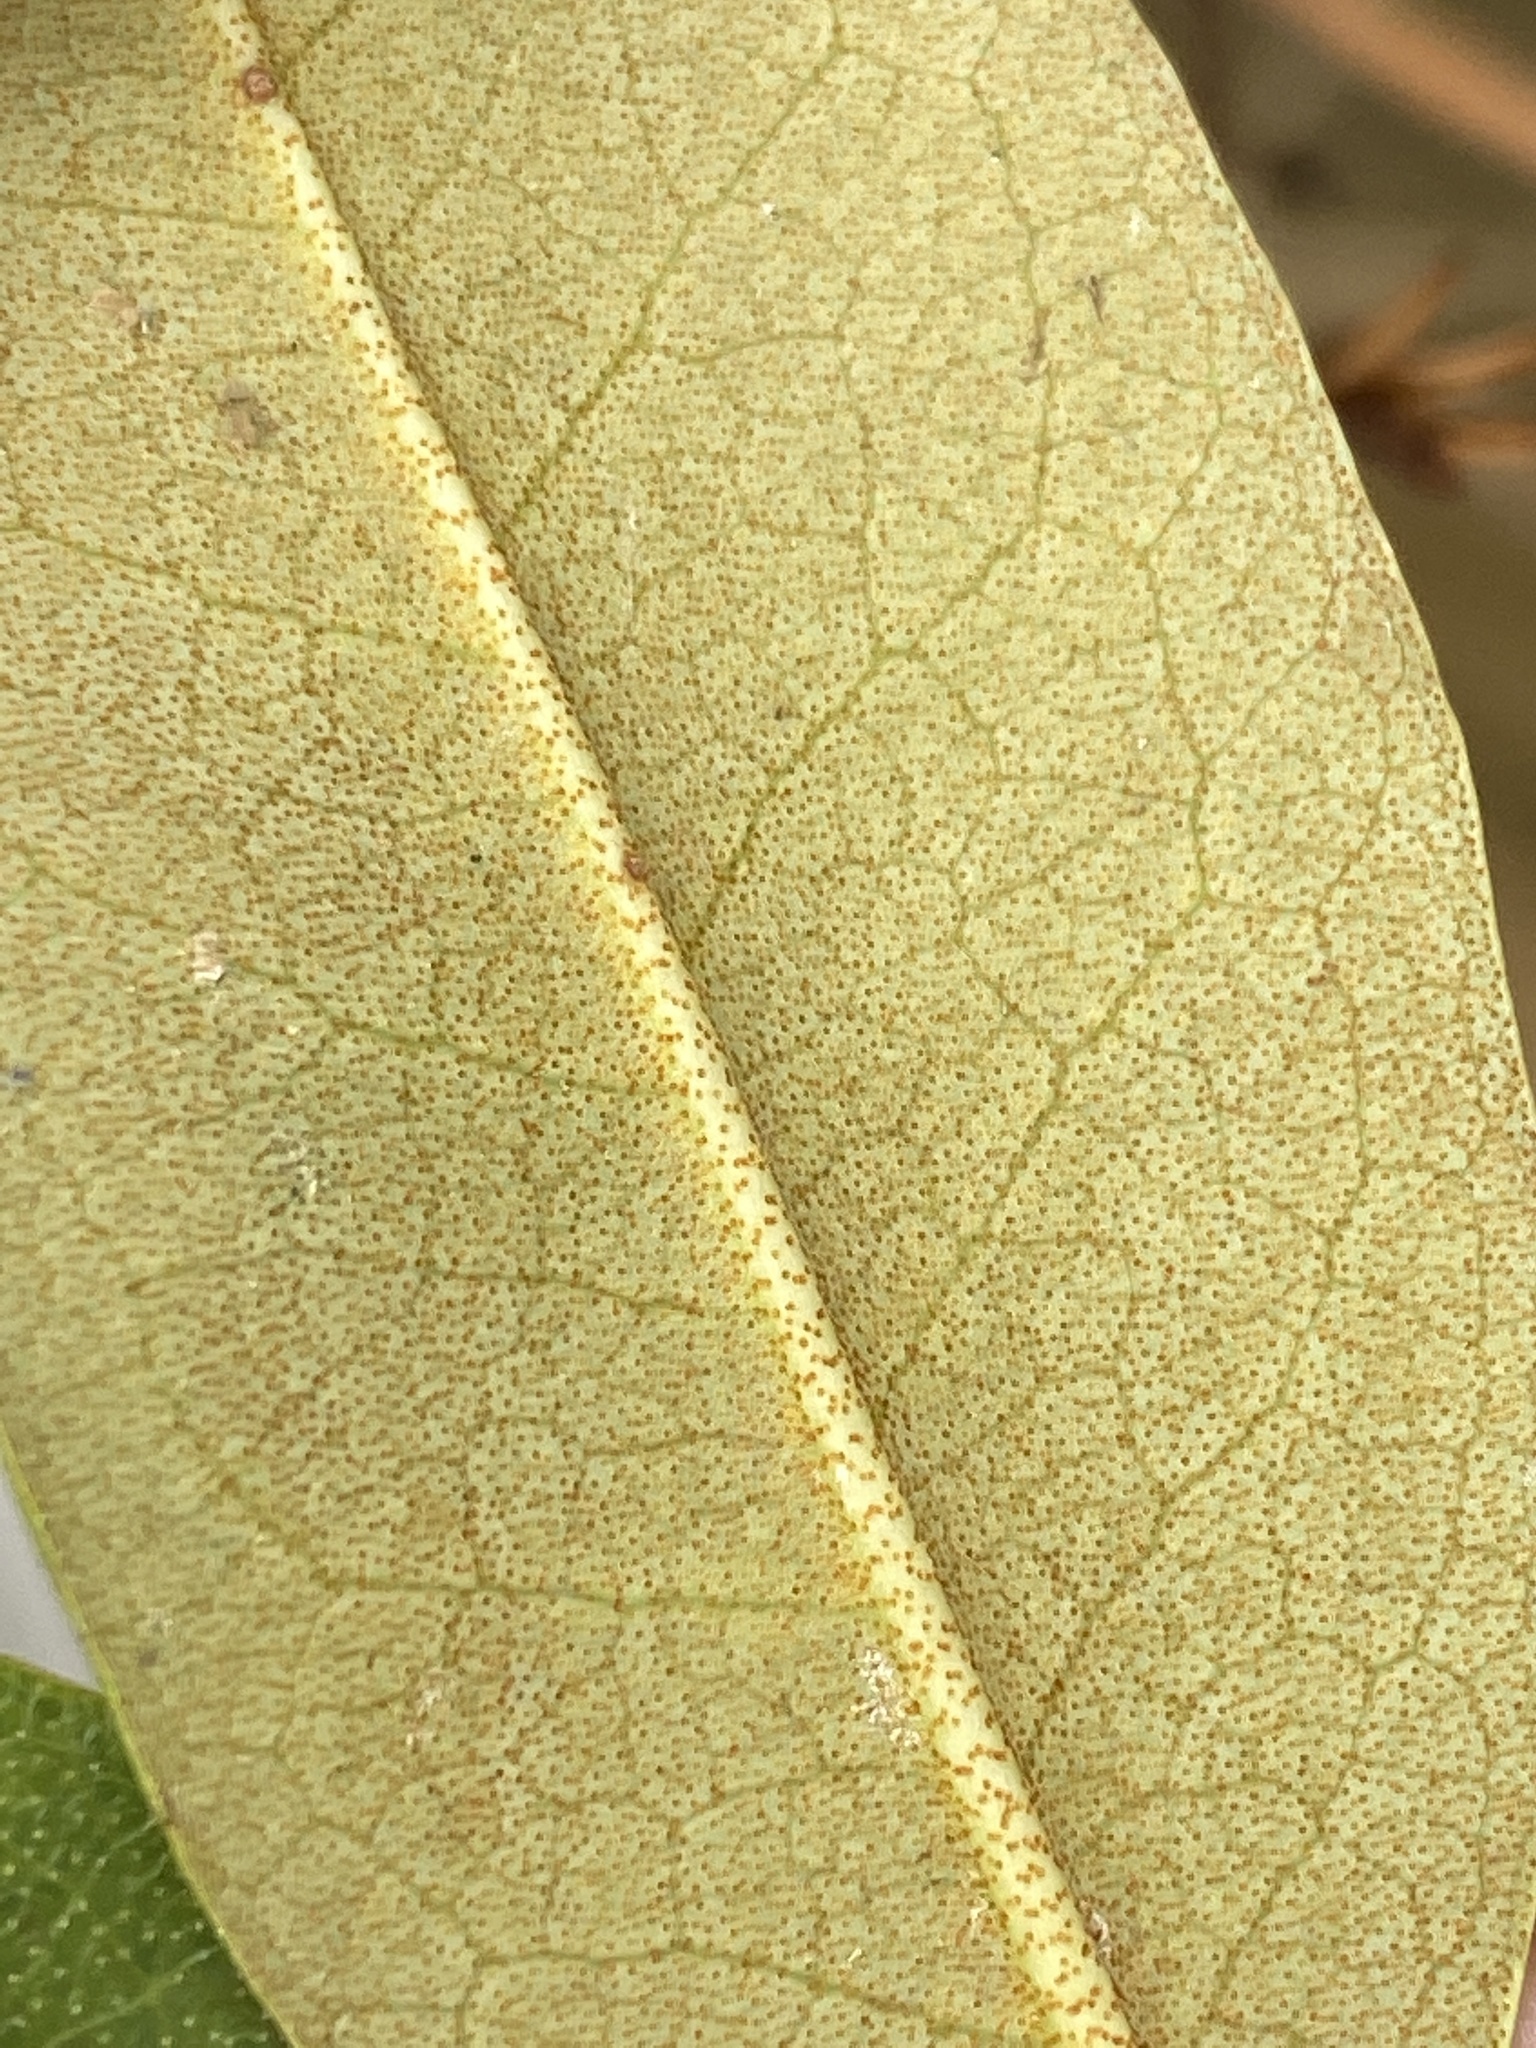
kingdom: Plantae
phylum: Tracheophyta
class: Magnoliopsida
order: Ericales
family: Ericaceae
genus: Rhododendron
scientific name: Rhododendron minus
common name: Piedmont rhododendron
